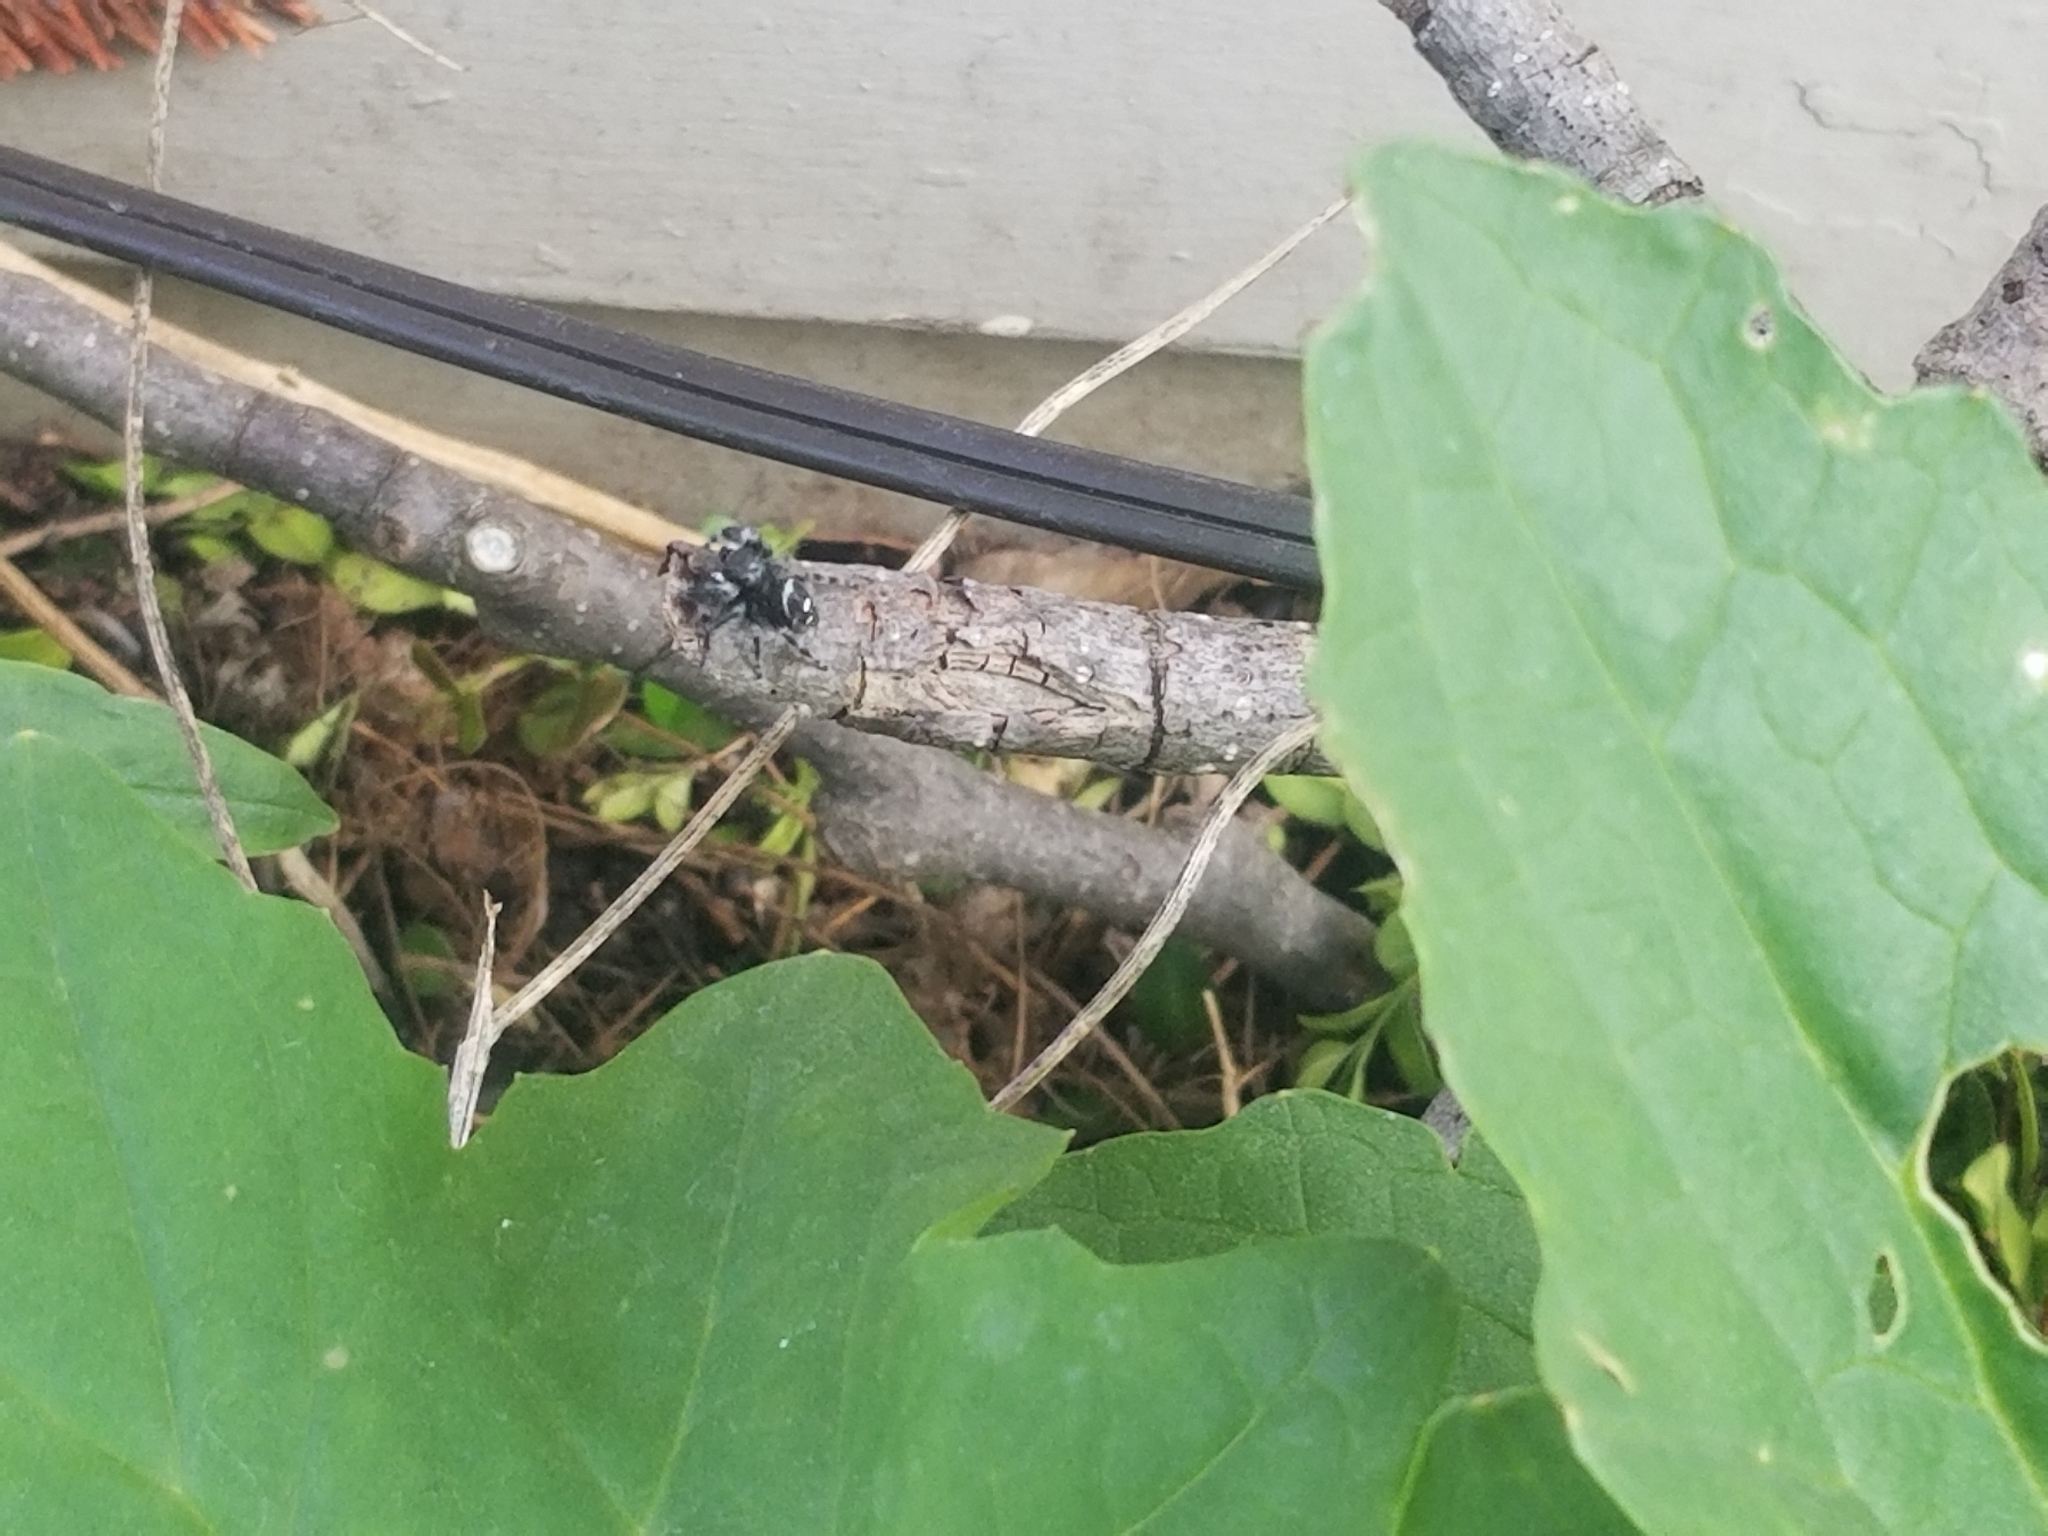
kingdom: Animalia
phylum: Arthropoda
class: Arachnida
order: Araneae
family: Salticidae
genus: Phidippus
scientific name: Phidippus audax
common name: Bold jumper
